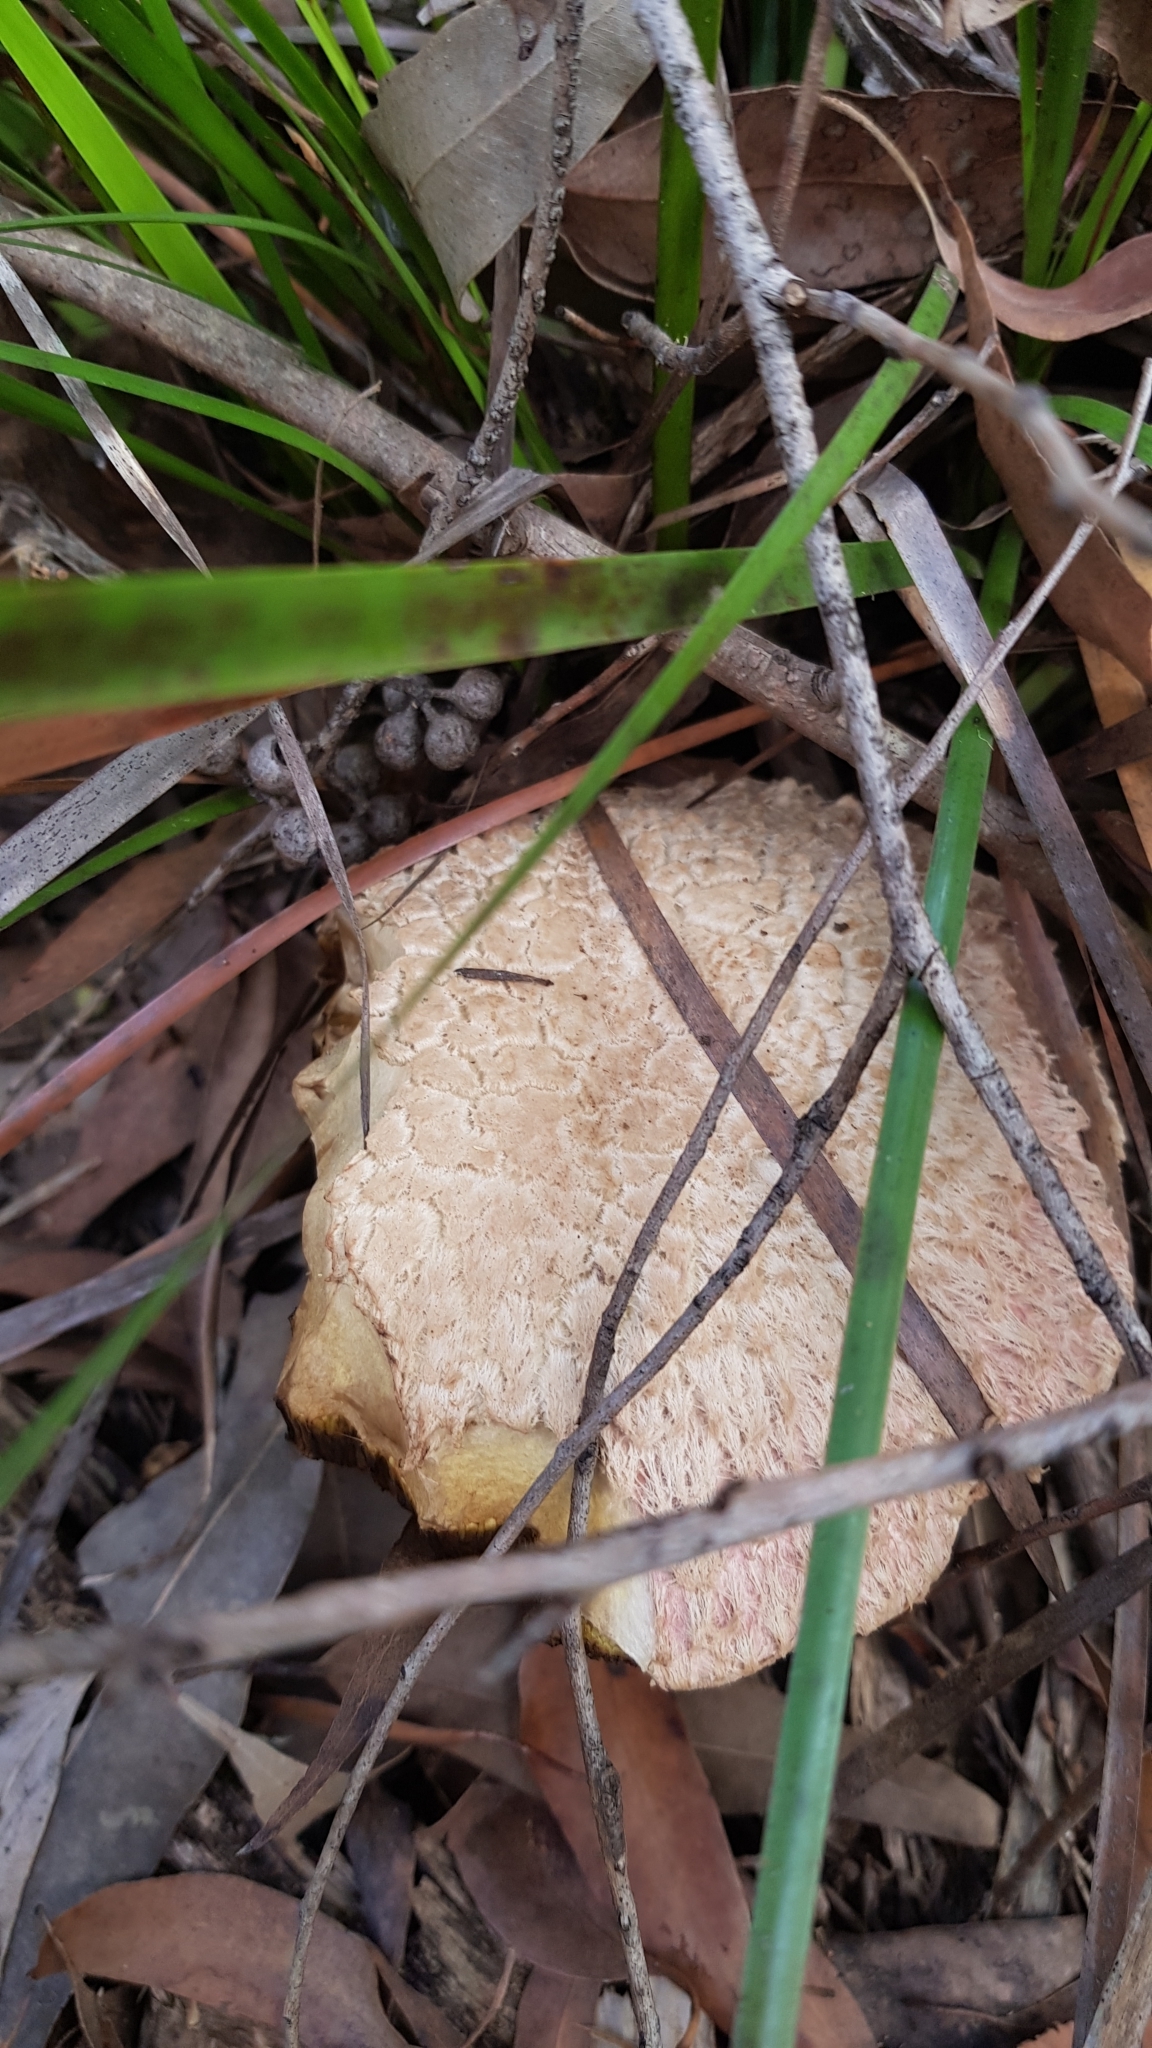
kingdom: Fungi
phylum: Basidiomycota
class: Agaricomycetes
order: Boletales
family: Boletaceae
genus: Boletellus
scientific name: Boletellus dissiliens
